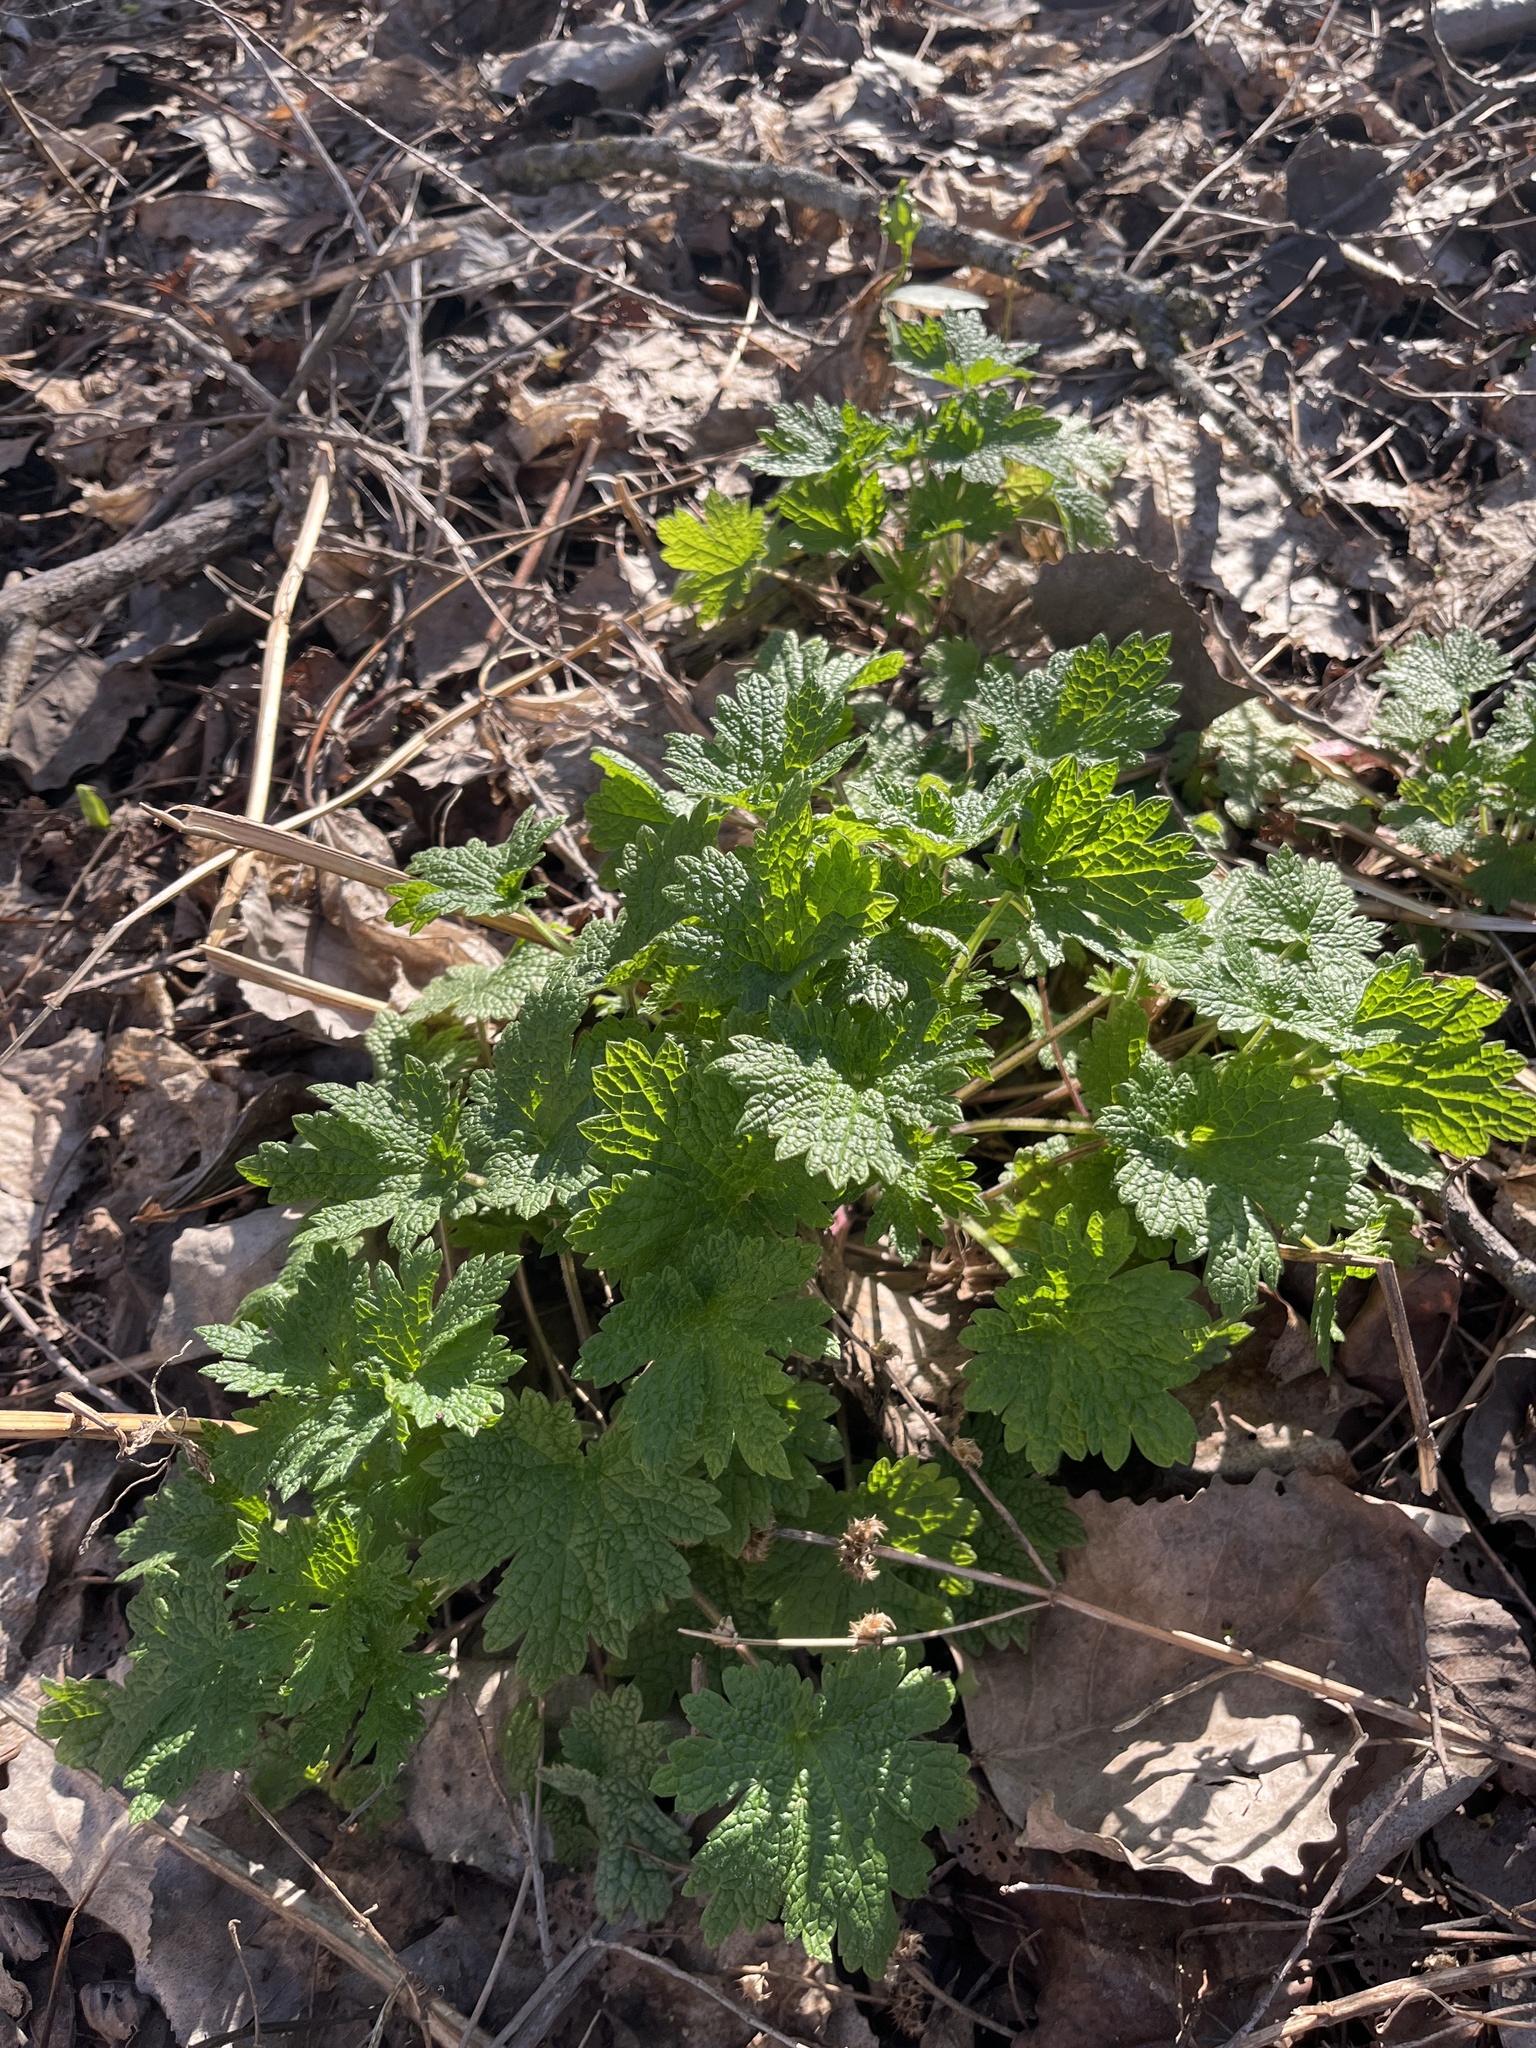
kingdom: Plantae
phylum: Tracheophyta
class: Magnoliopsida
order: Lamiales
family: Lamiaceae
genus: Leonurus
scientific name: Leonurus cardiaca
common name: Motherwort
